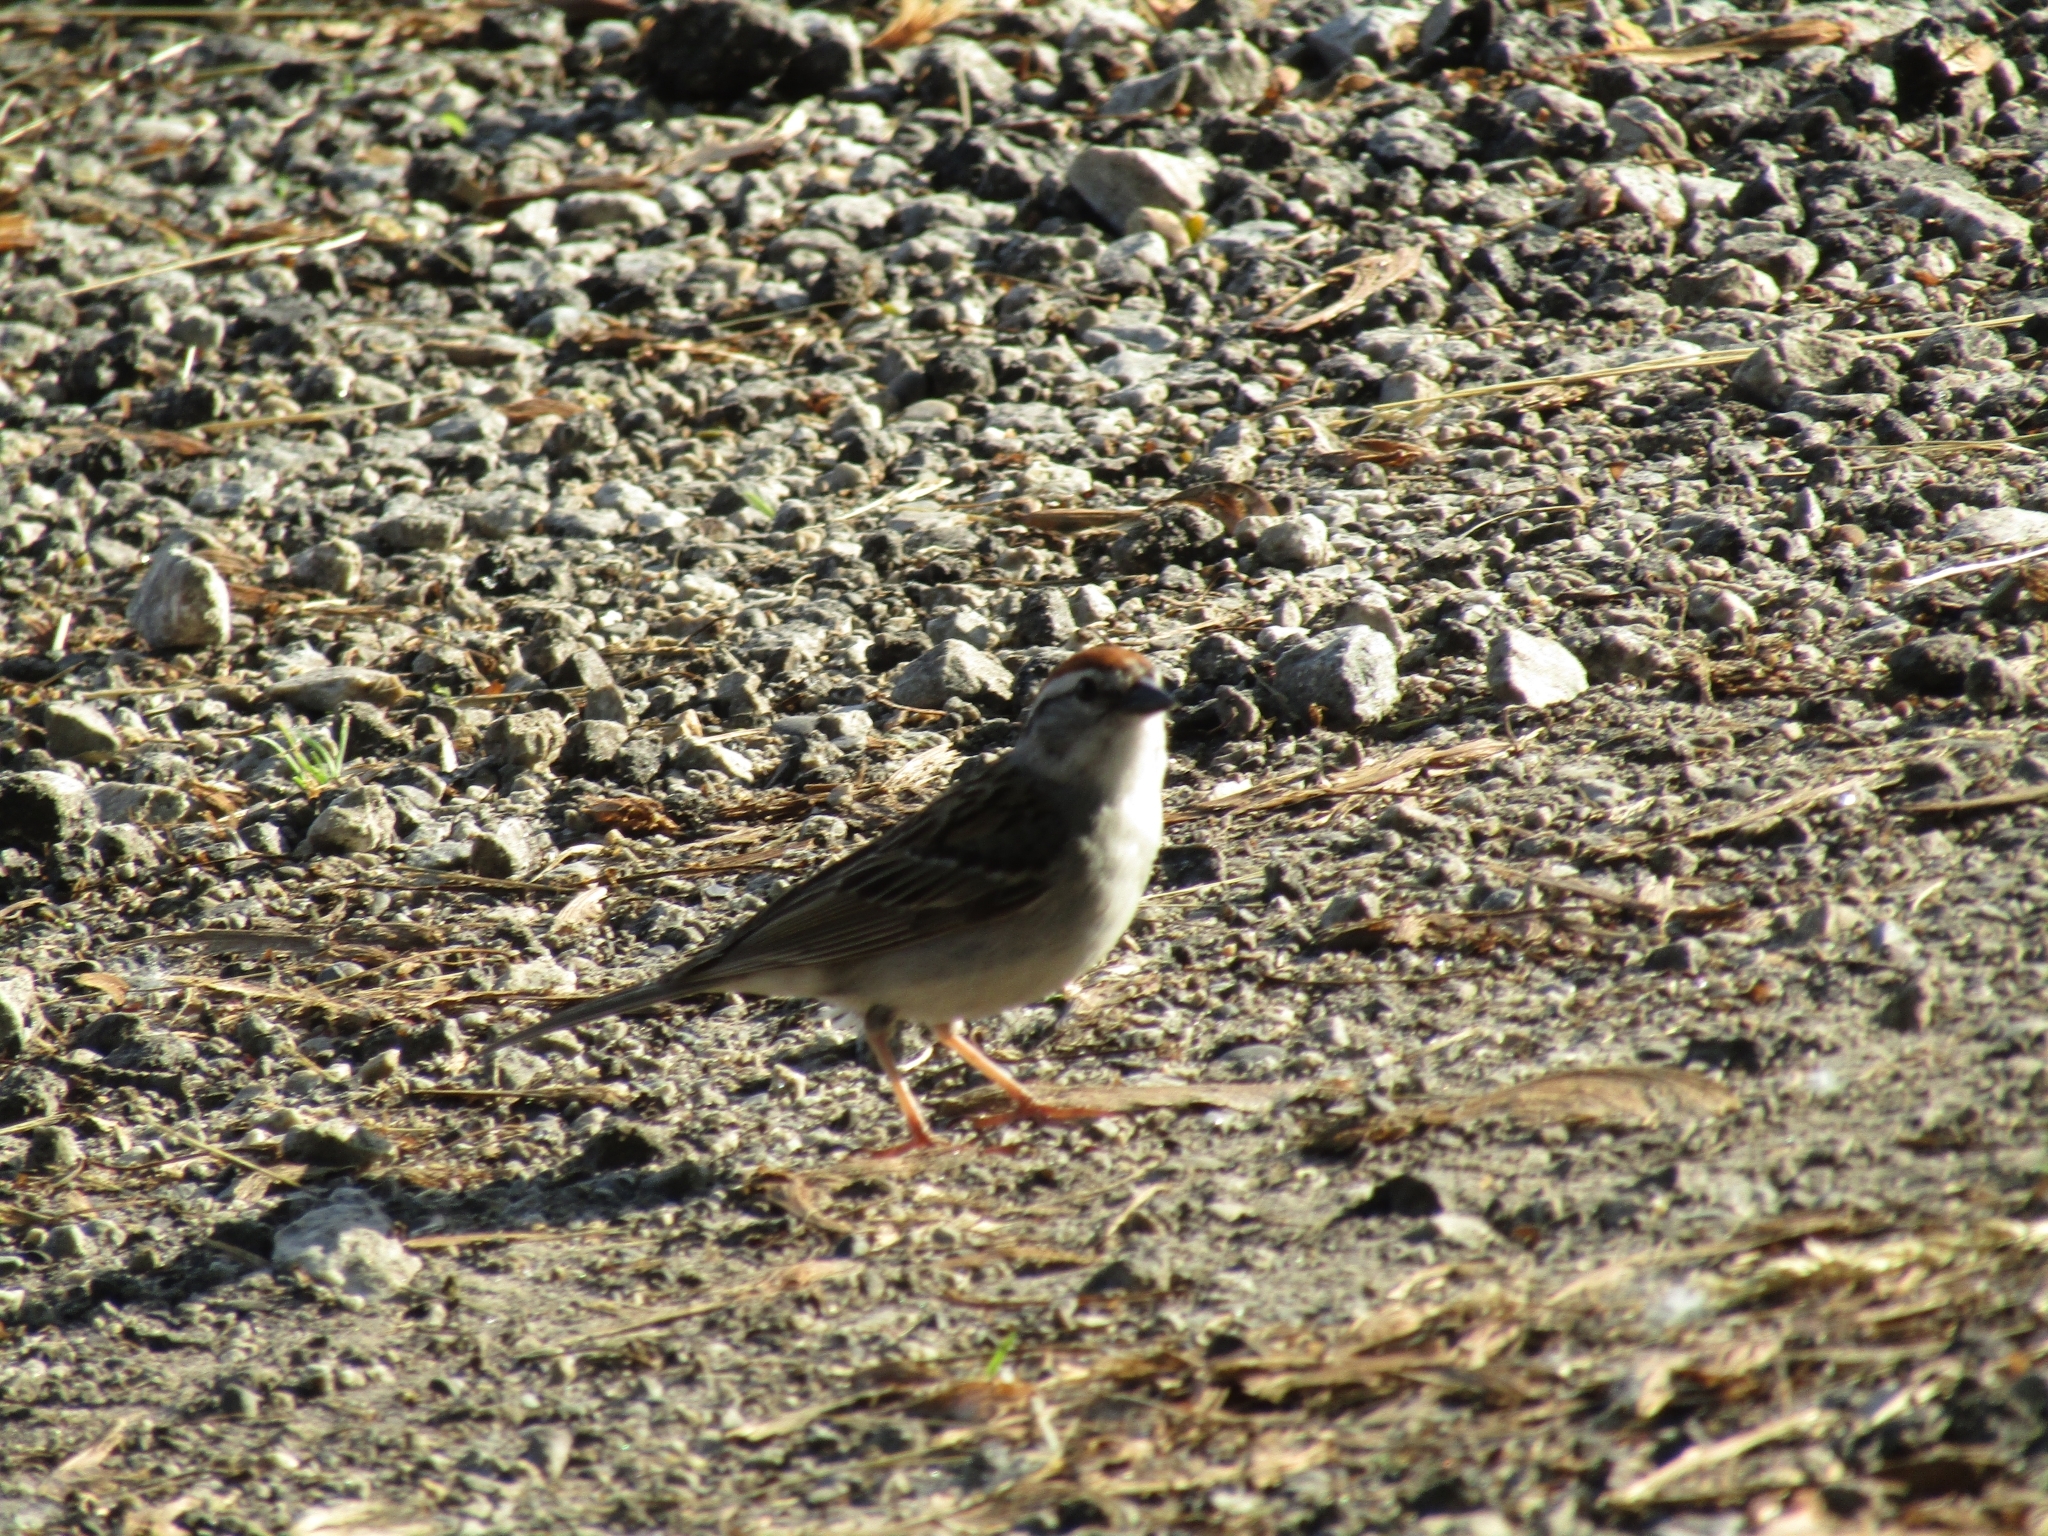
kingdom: Animalia
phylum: Chordata
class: Aves
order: Passeriformes
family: Passerellidae
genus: Spizella
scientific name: Spizella passerina
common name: Chipping sparrow
